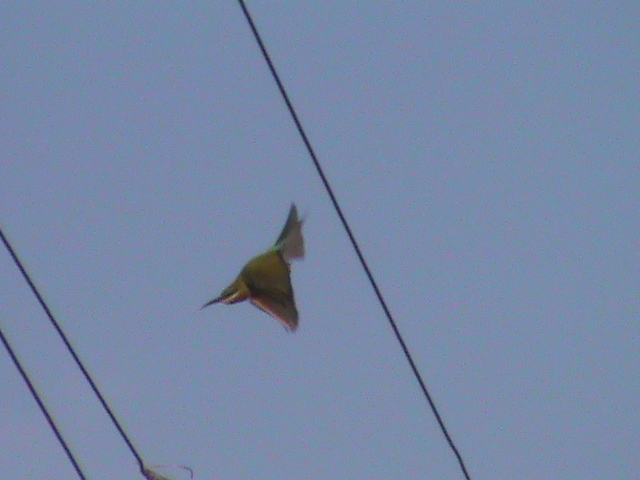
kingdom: Animalia
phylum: Chordata
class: Aves
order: Coraciiformes
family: Meropidae
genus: Merops
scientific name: Merops philippinus
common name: Blue-tailed bee-eater
